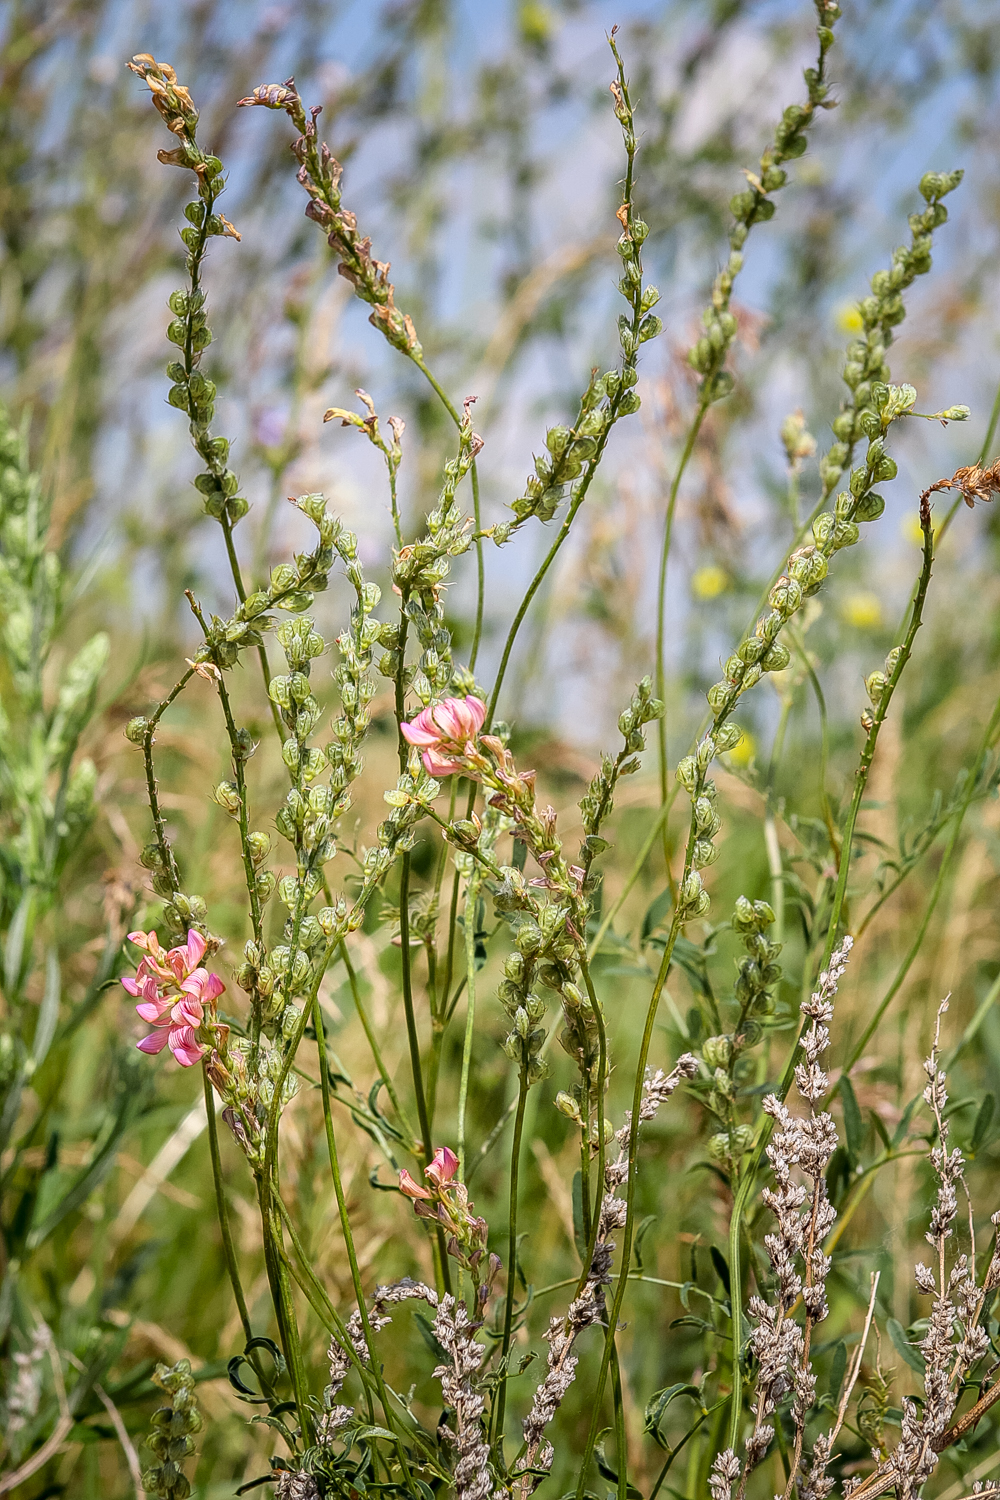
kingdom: Plantae
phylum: Tracheophyta
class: Magnoliopsida
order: Fabales
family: Fabaceae
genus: Onobrychis
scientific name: Onobrychis arenaria
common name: Sand esparcet
